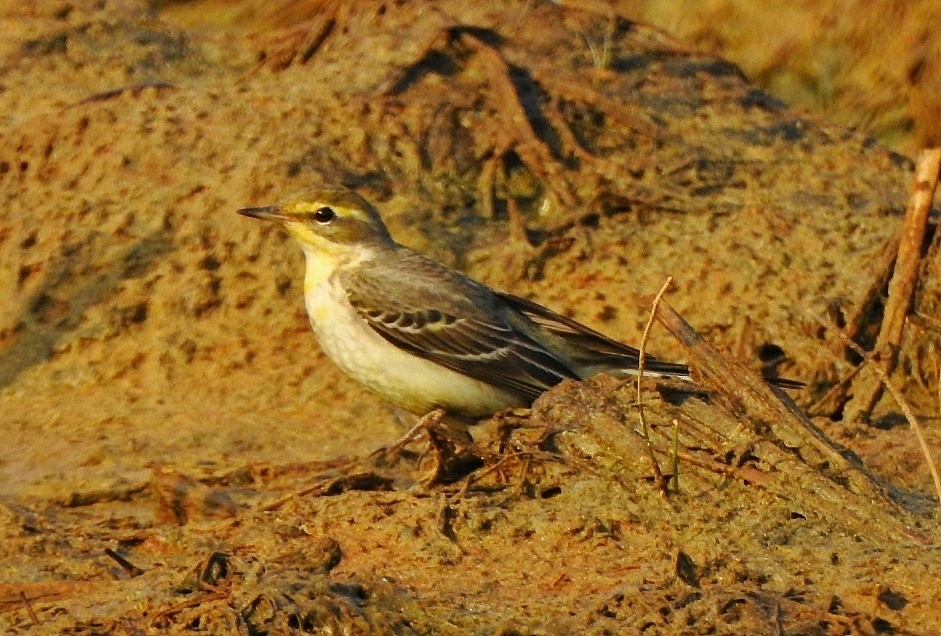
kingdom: Animalia
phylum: Chordata
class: Aves
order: Passeriformes
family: Motacillidae
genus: Motacilla
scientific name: Motacilla flava
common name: Western yellow wagtail
